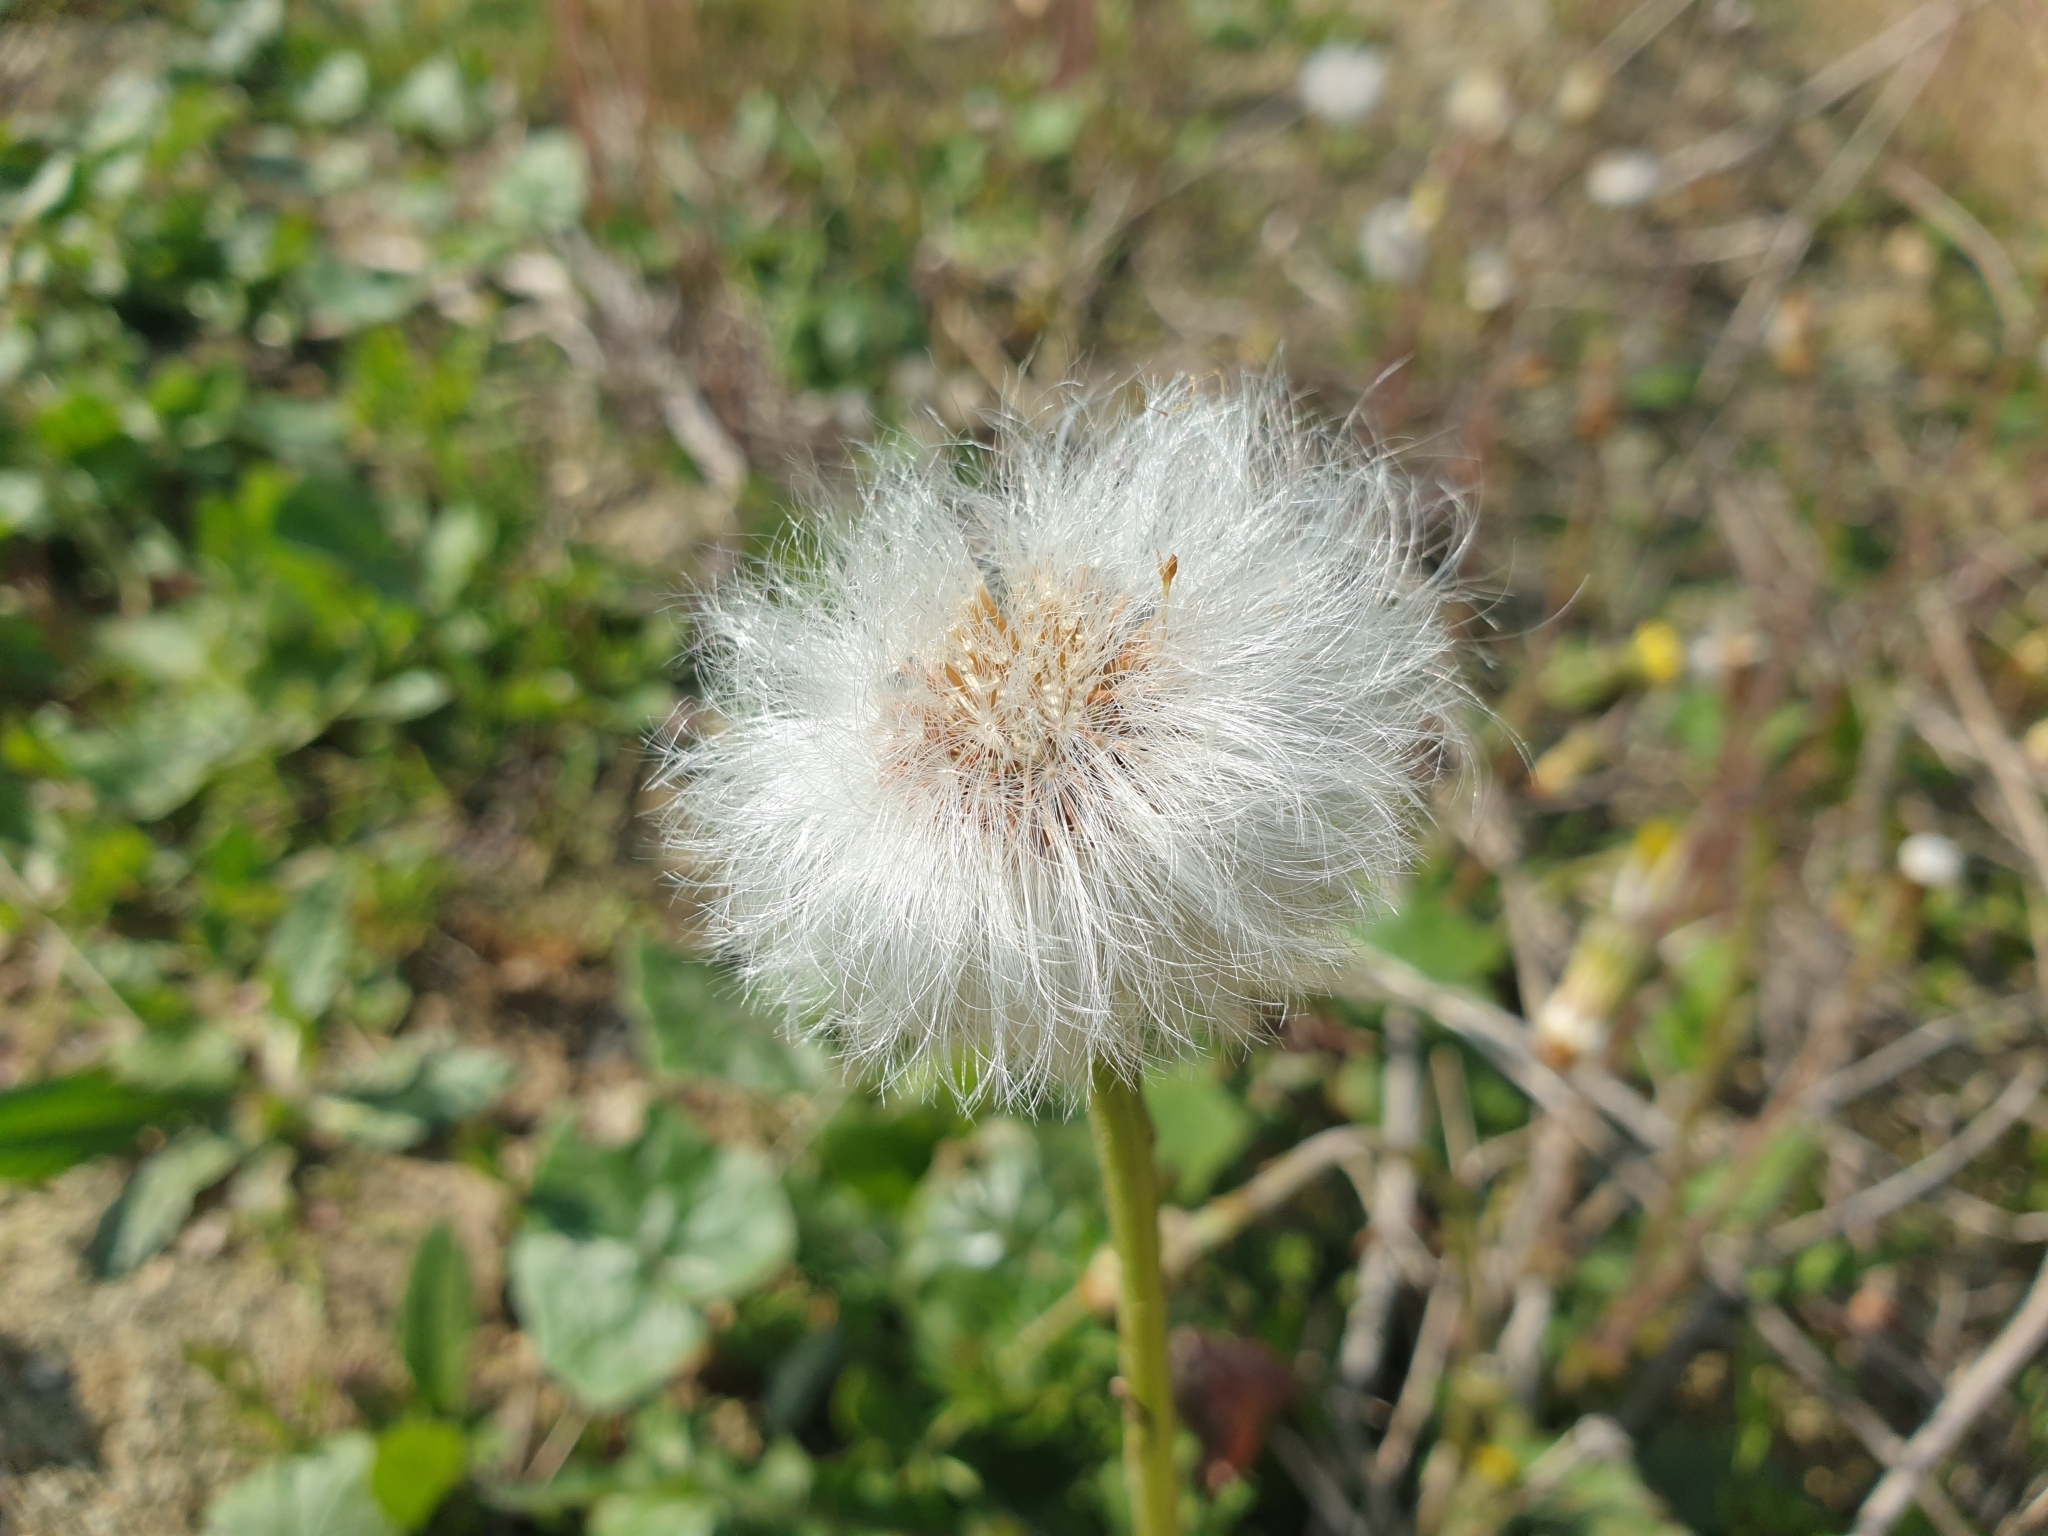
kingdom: Plantae
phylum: Tracheophyta
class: Magnoliopsida
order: Asterales
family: Asteraceae
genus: Tussilago
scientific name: Tussilago farfara
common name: Coltsfoot
